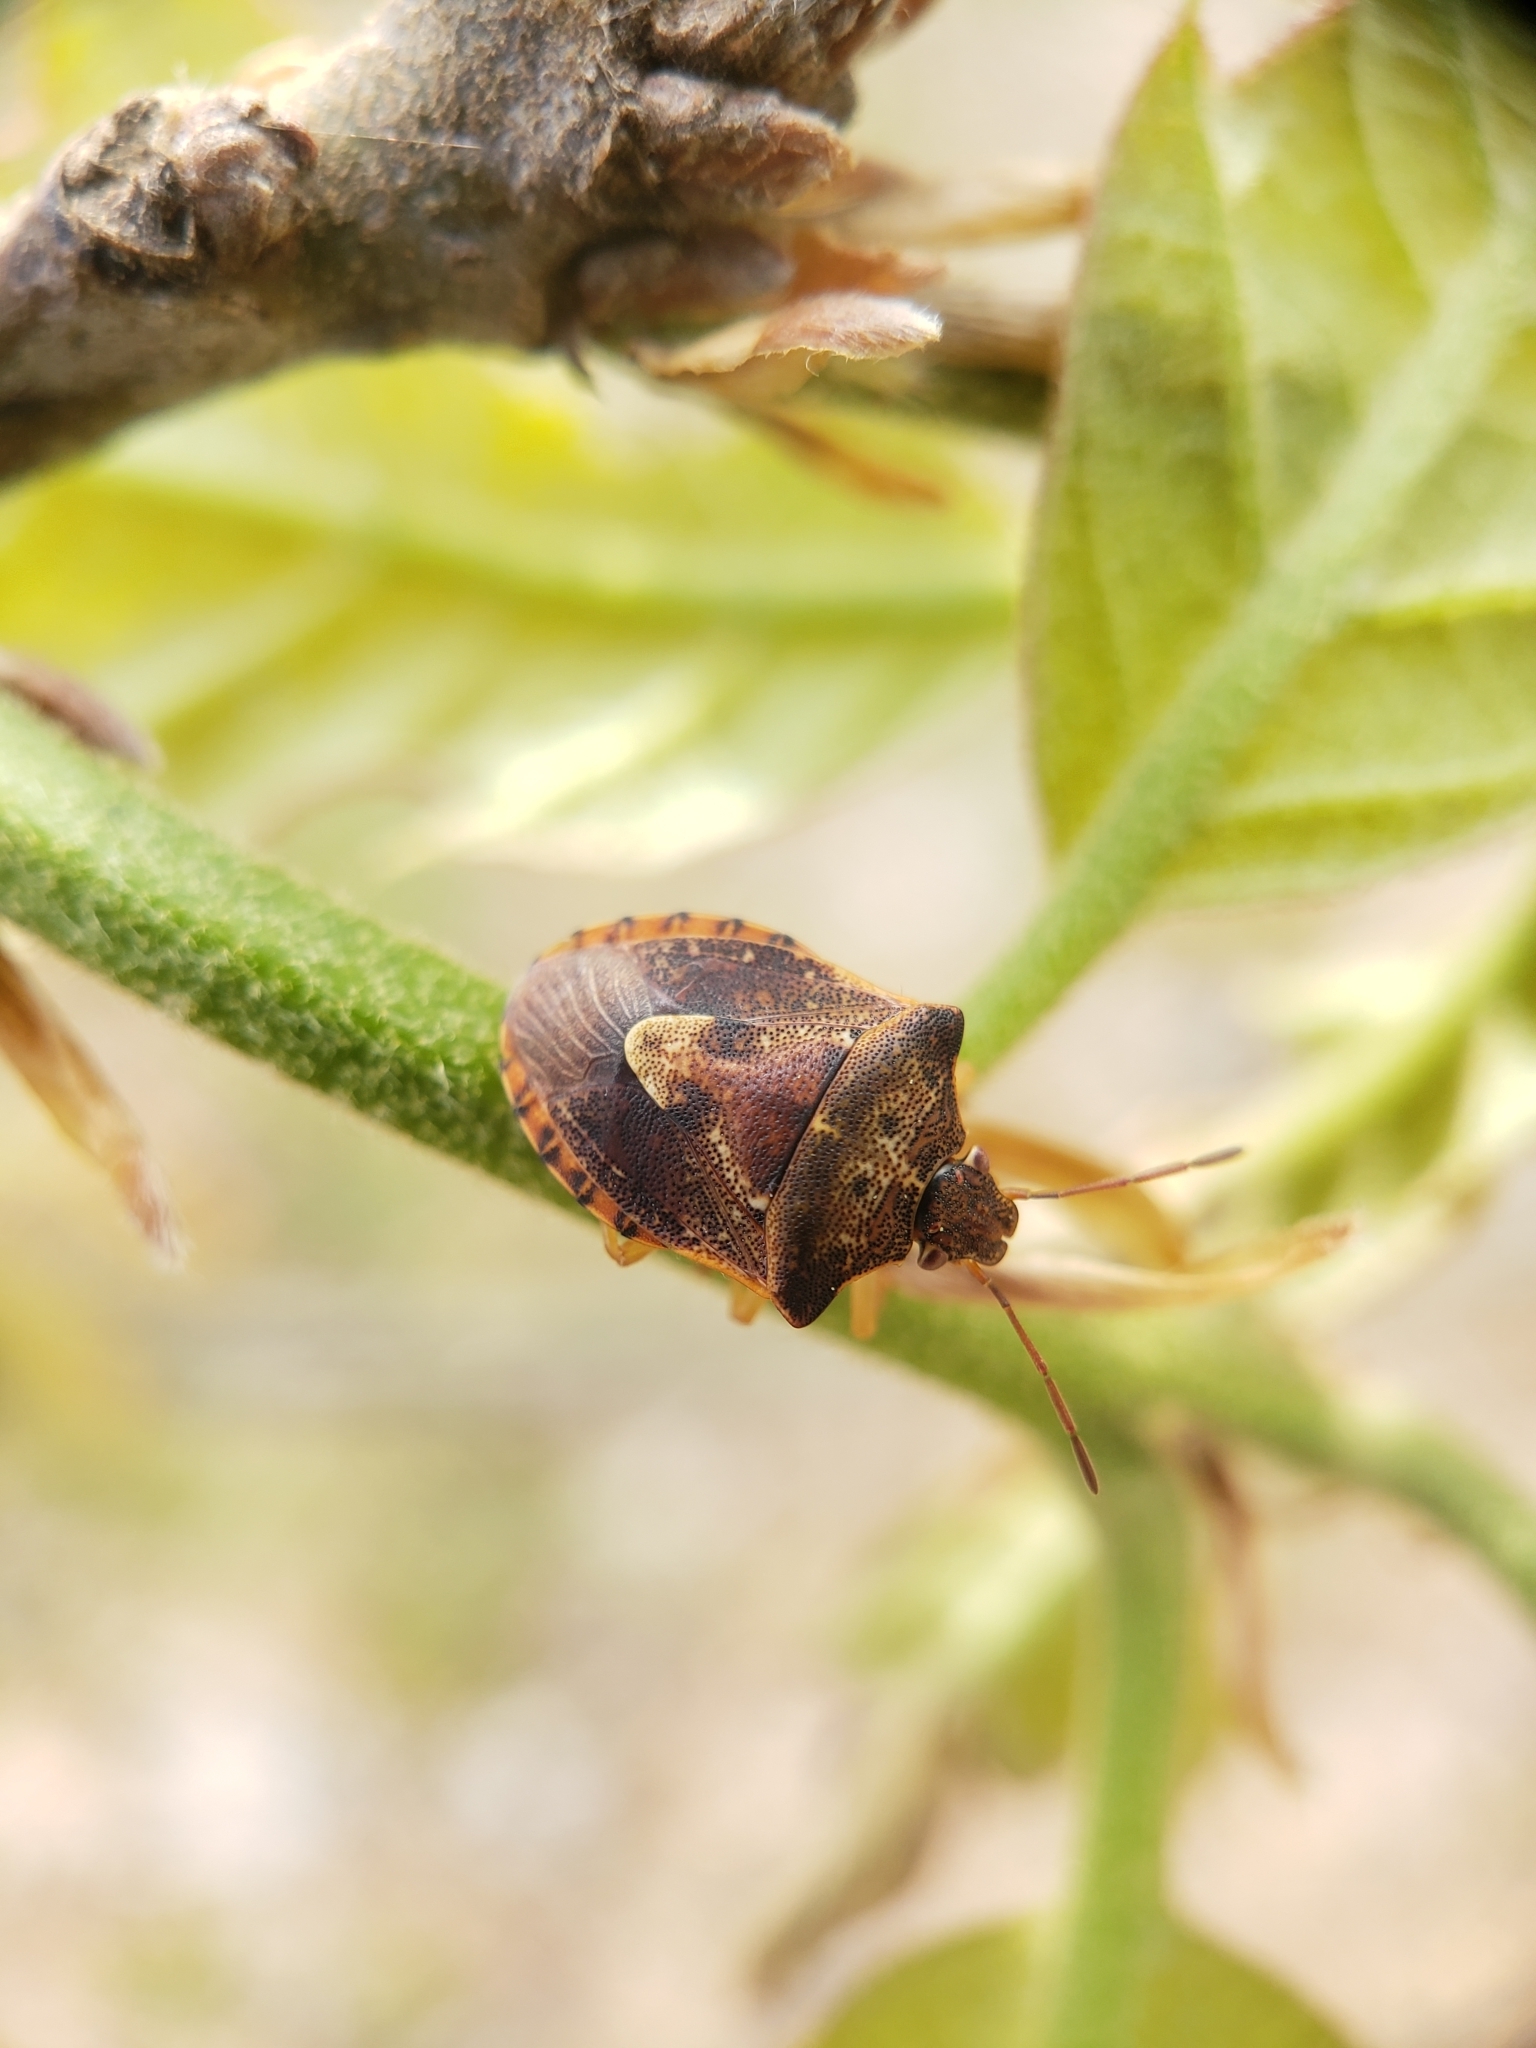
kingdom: Animalia
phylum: Arthropoda
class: Insecta
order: Hemiptera
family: Pentatomidae
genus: Dendrocoris
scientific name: Dendrocoris humeralis
